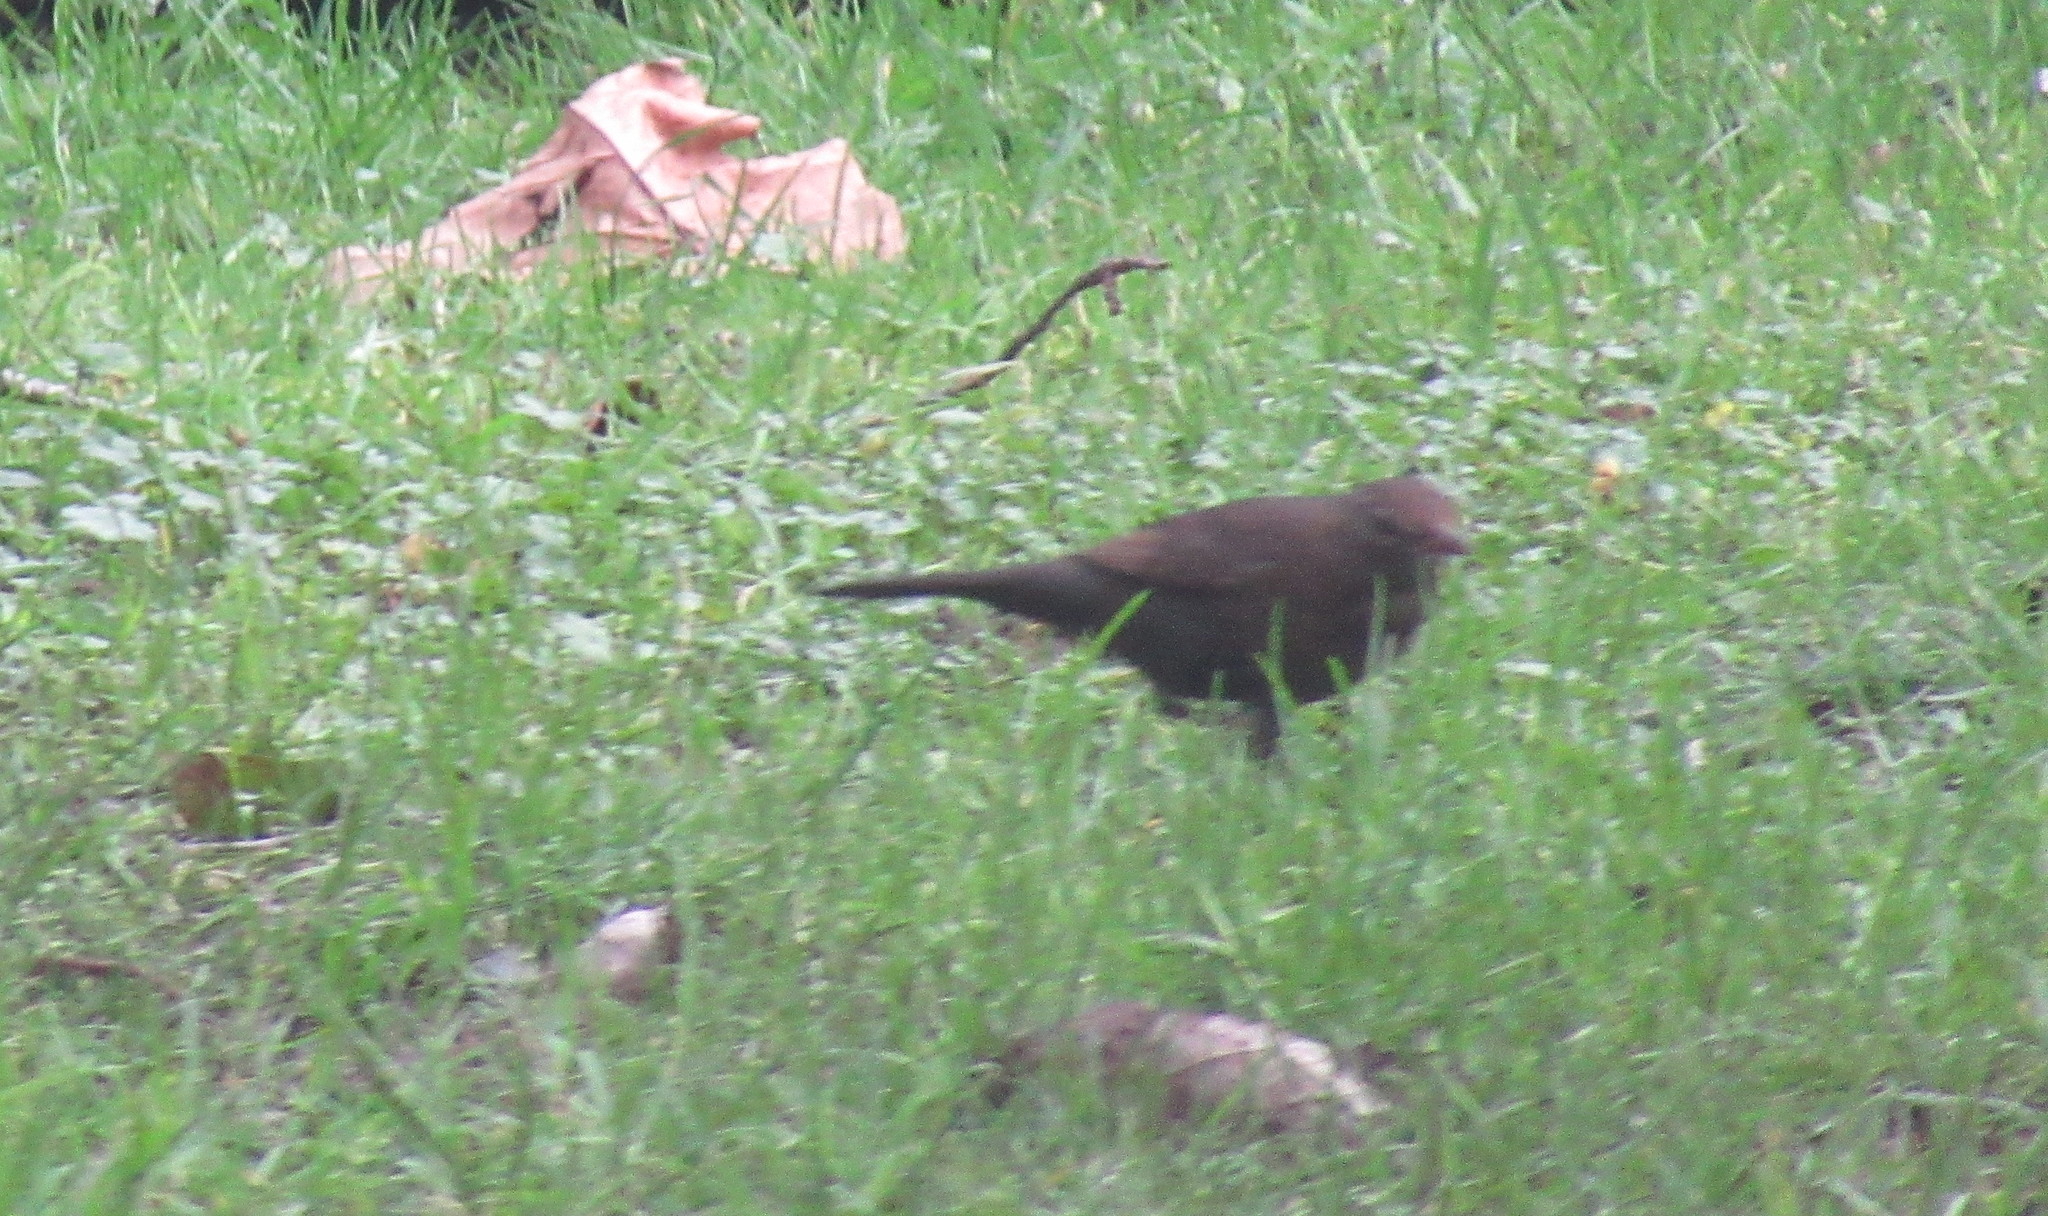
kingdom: Animalia
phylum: Chordata
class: Aves
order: Passeriformes
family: Turdidae
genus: Turdus
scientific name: Turdus merula
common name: Common blackbird
